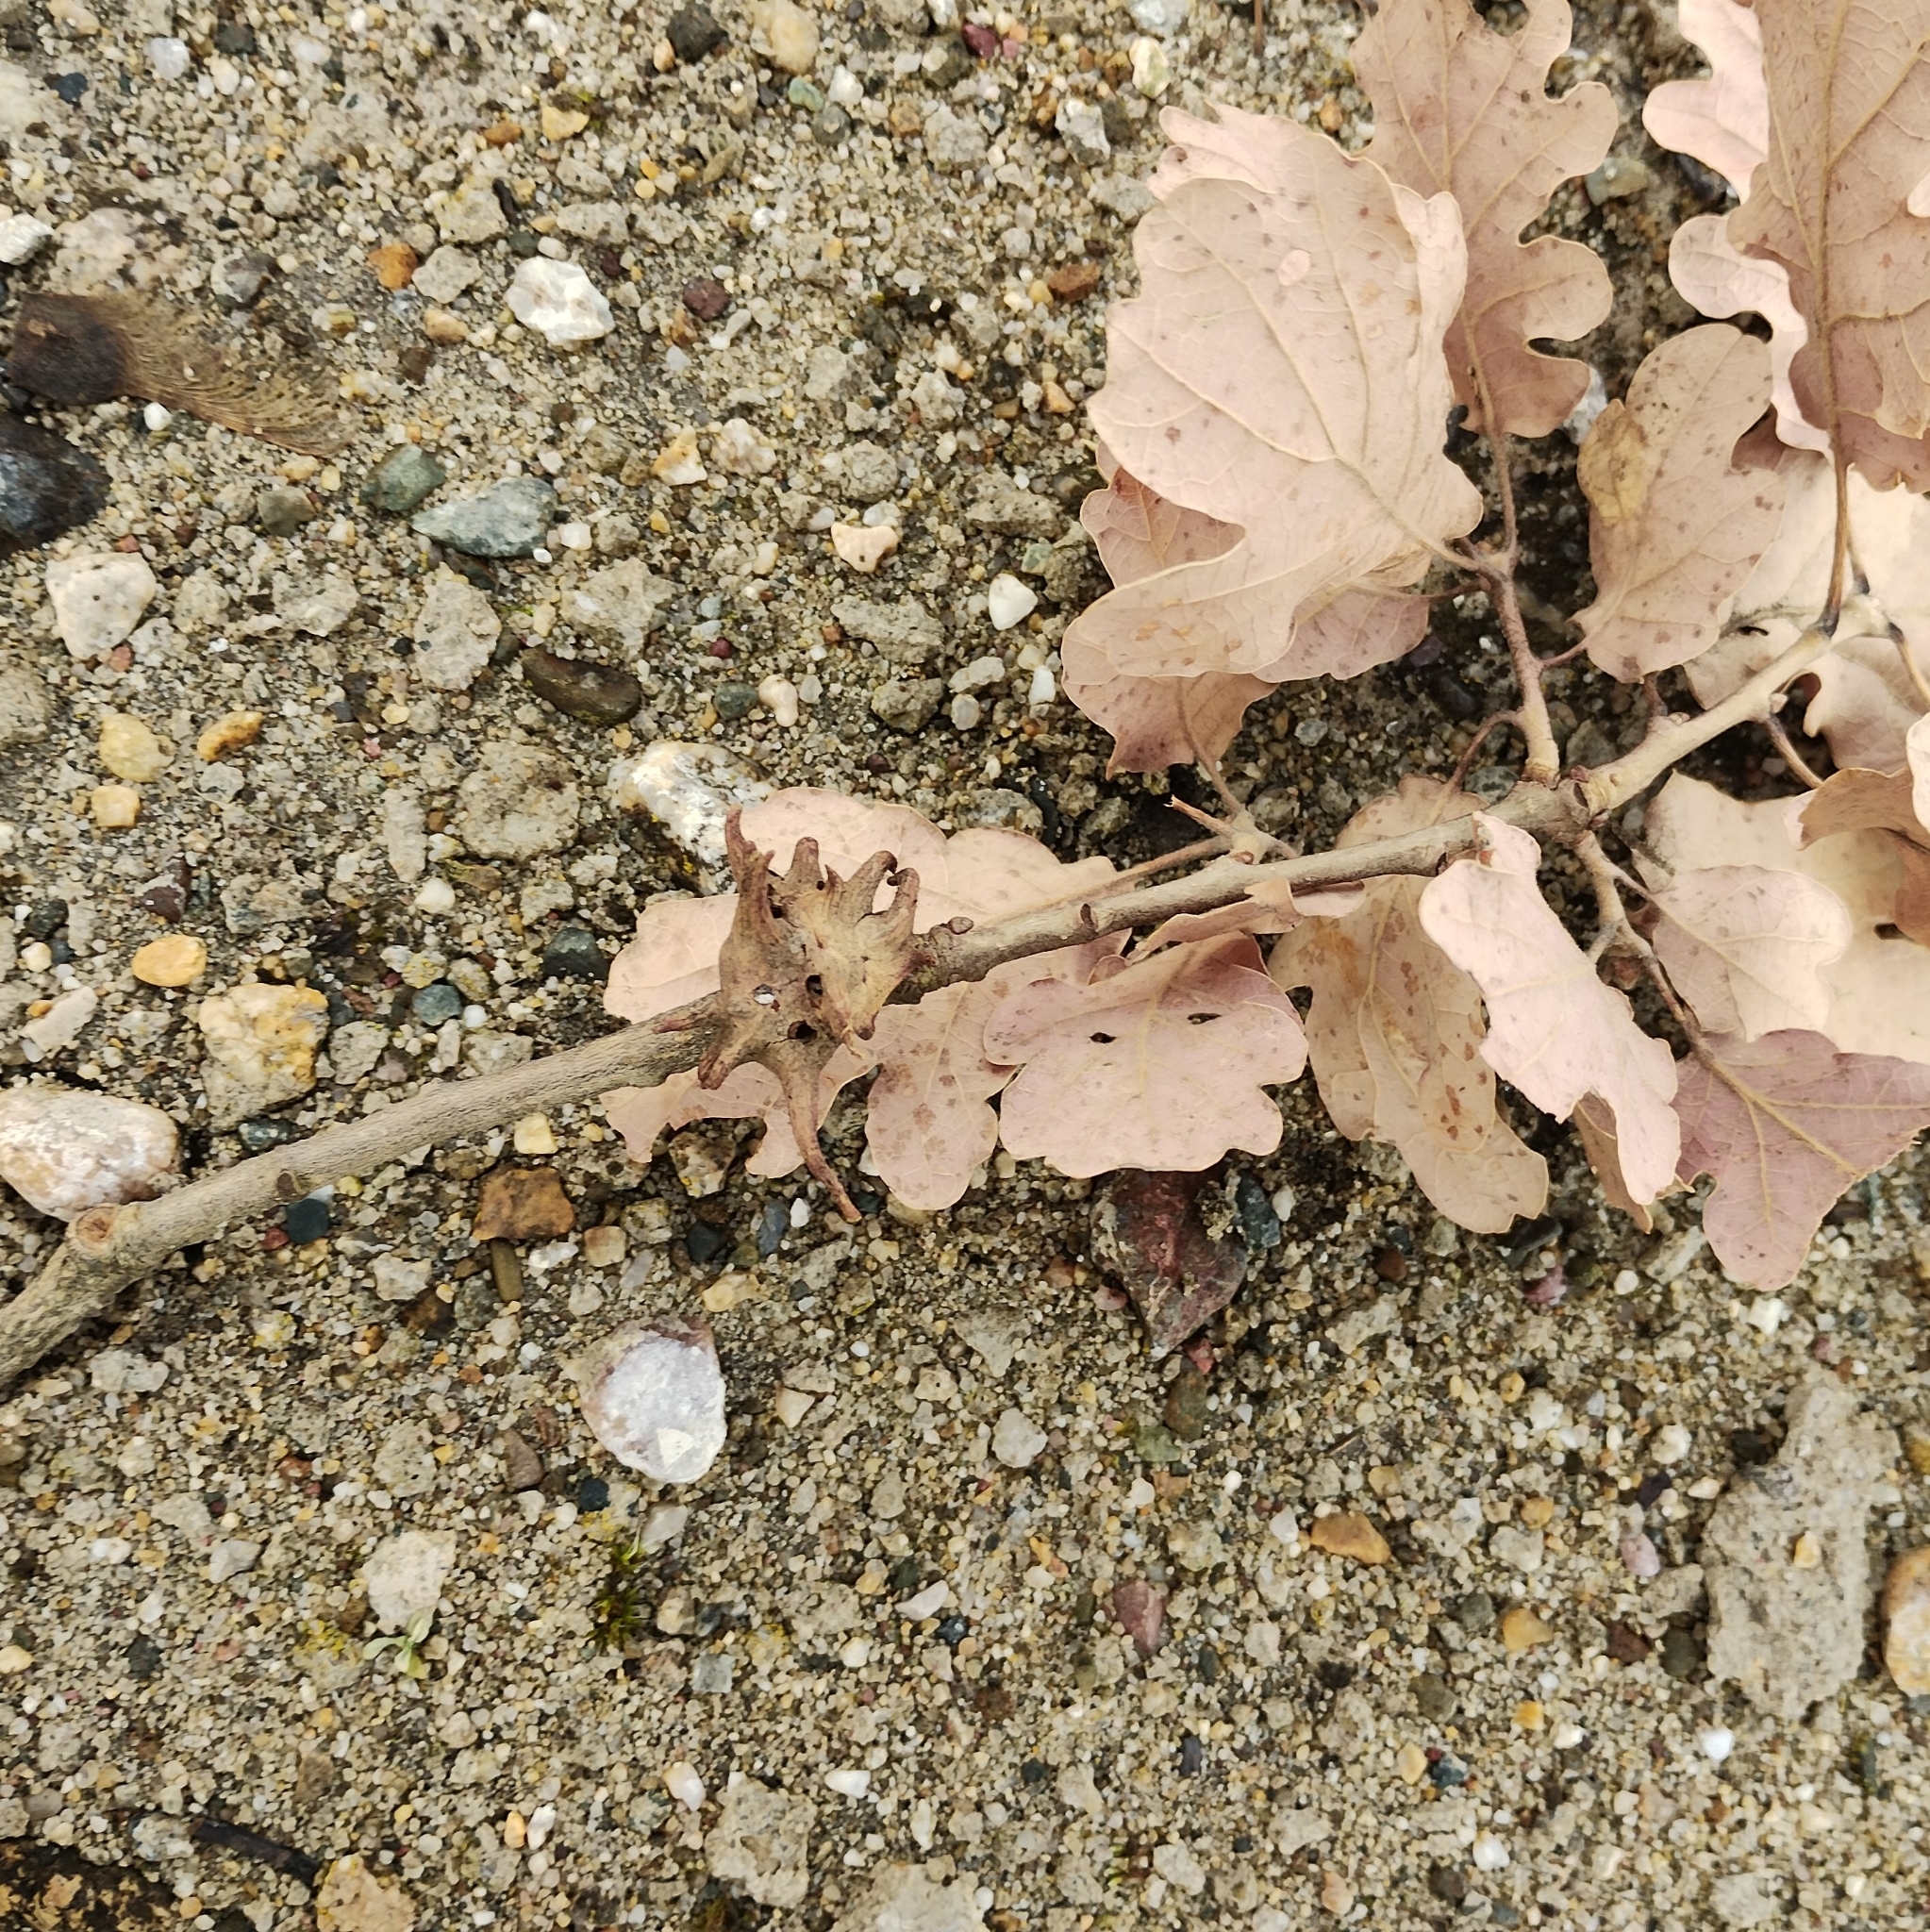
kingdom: Animalia
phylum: Arthropoda
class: Insecta
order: Hymenoptera
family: Cynipidae
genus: Andricus
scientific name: Andricus coriarius
